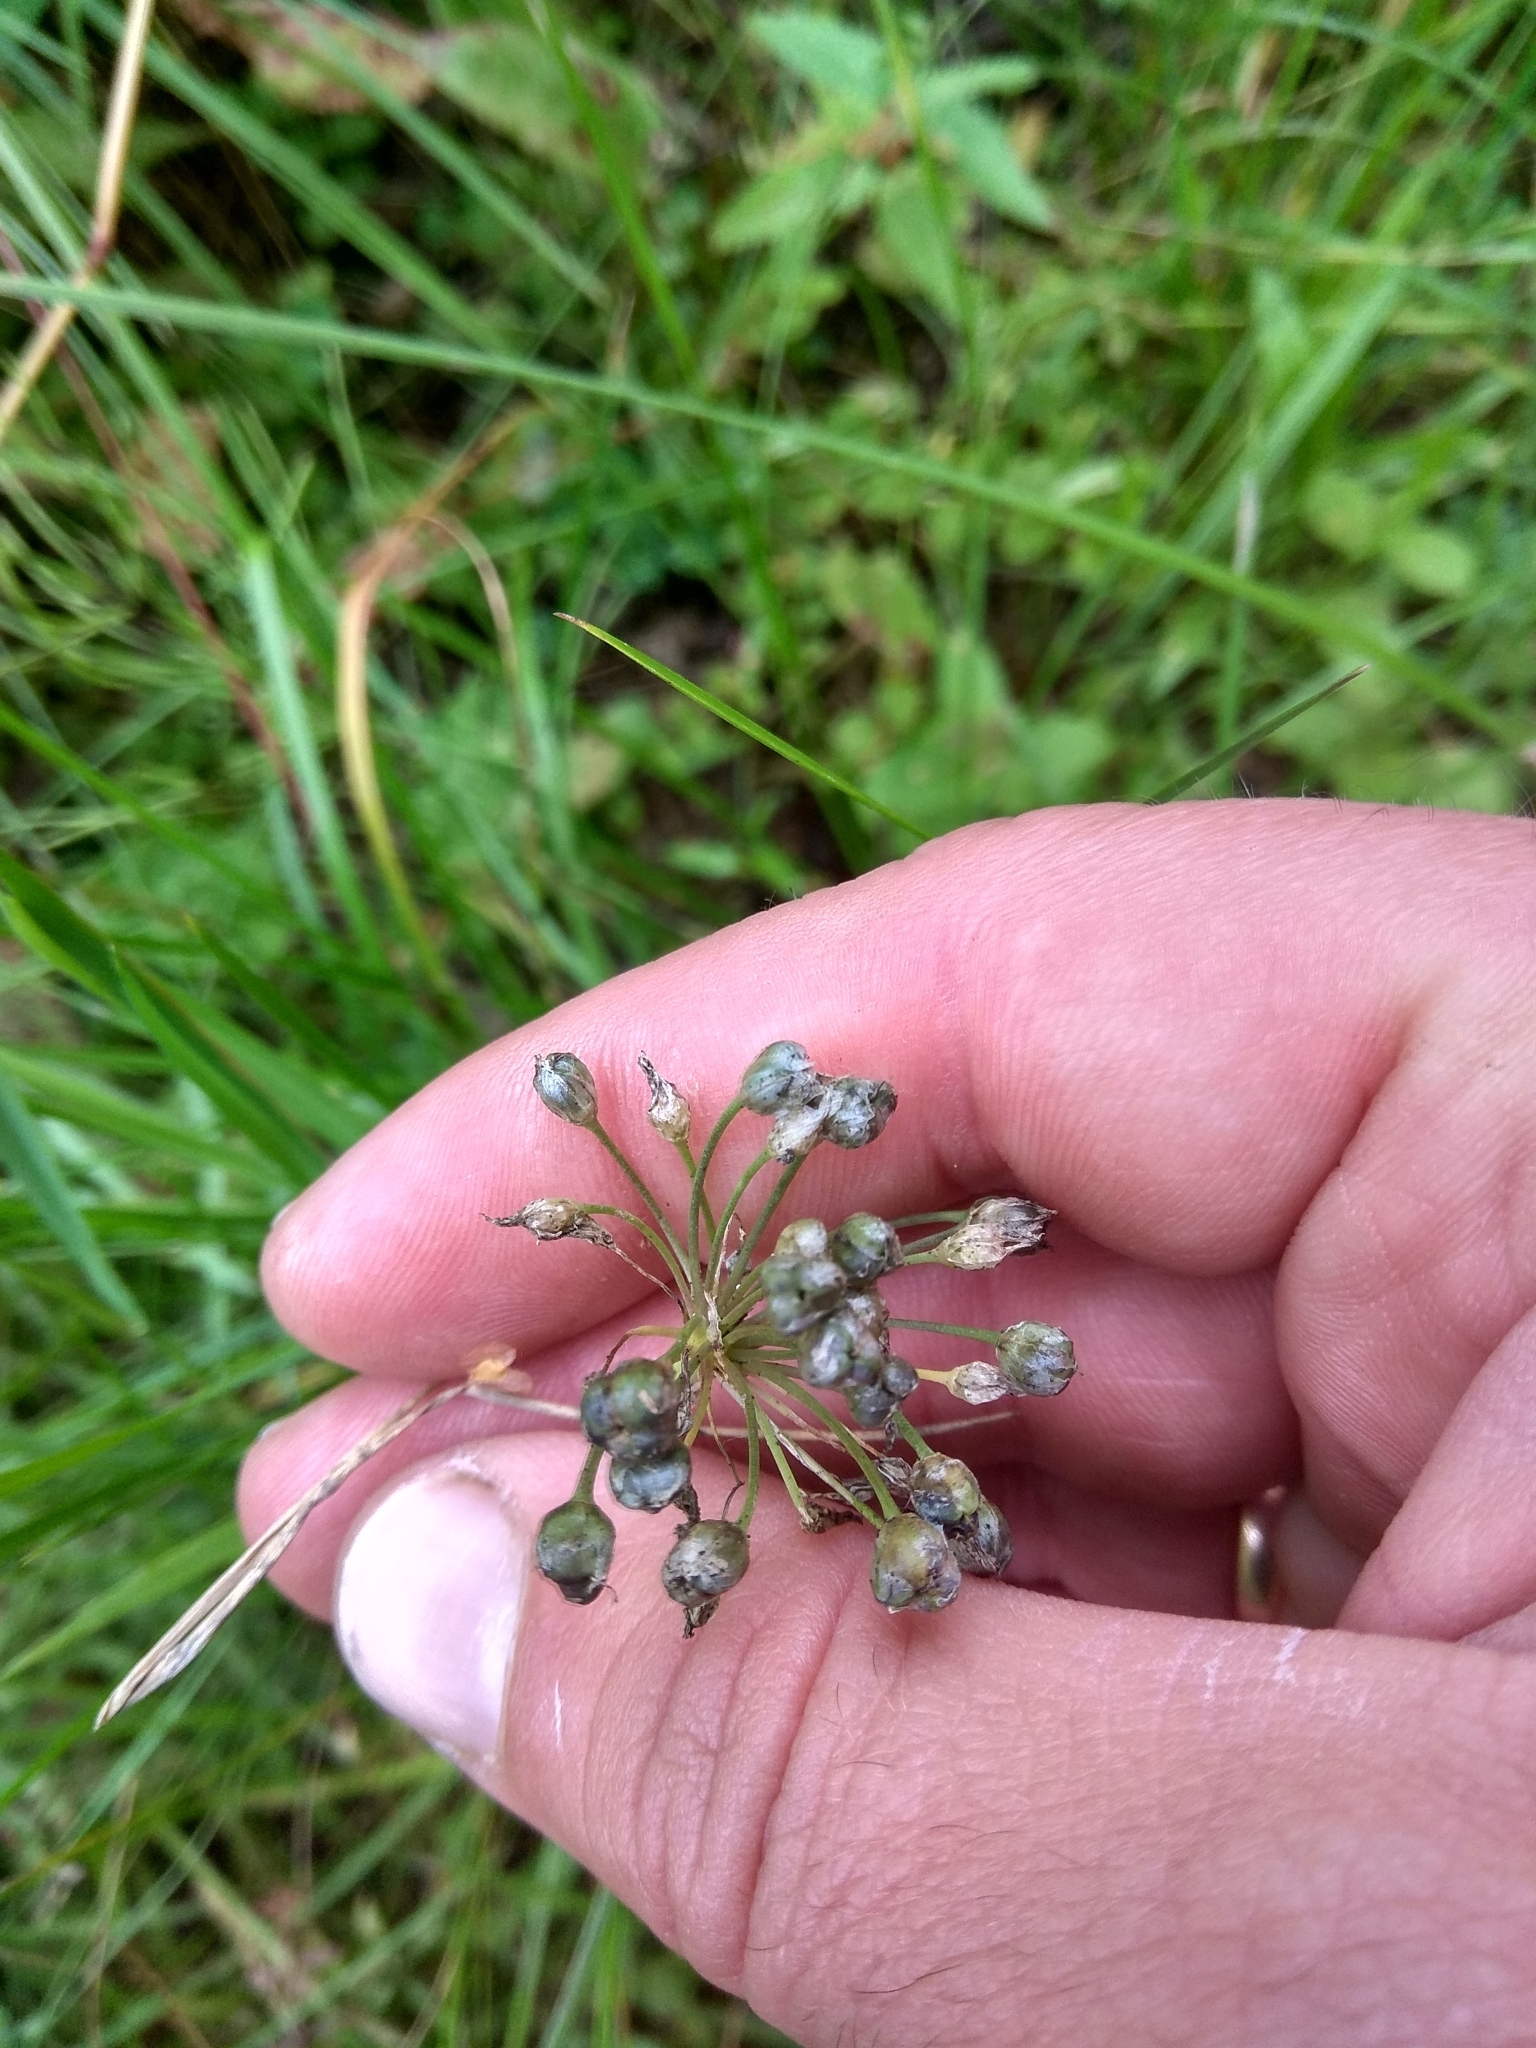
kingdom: Plantae
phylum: Tracheophyta
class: Liliopsida
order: Asparagales
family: Amaryllidaceae
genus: Allium
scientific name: Allium angulosum
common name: Mouse garlic
